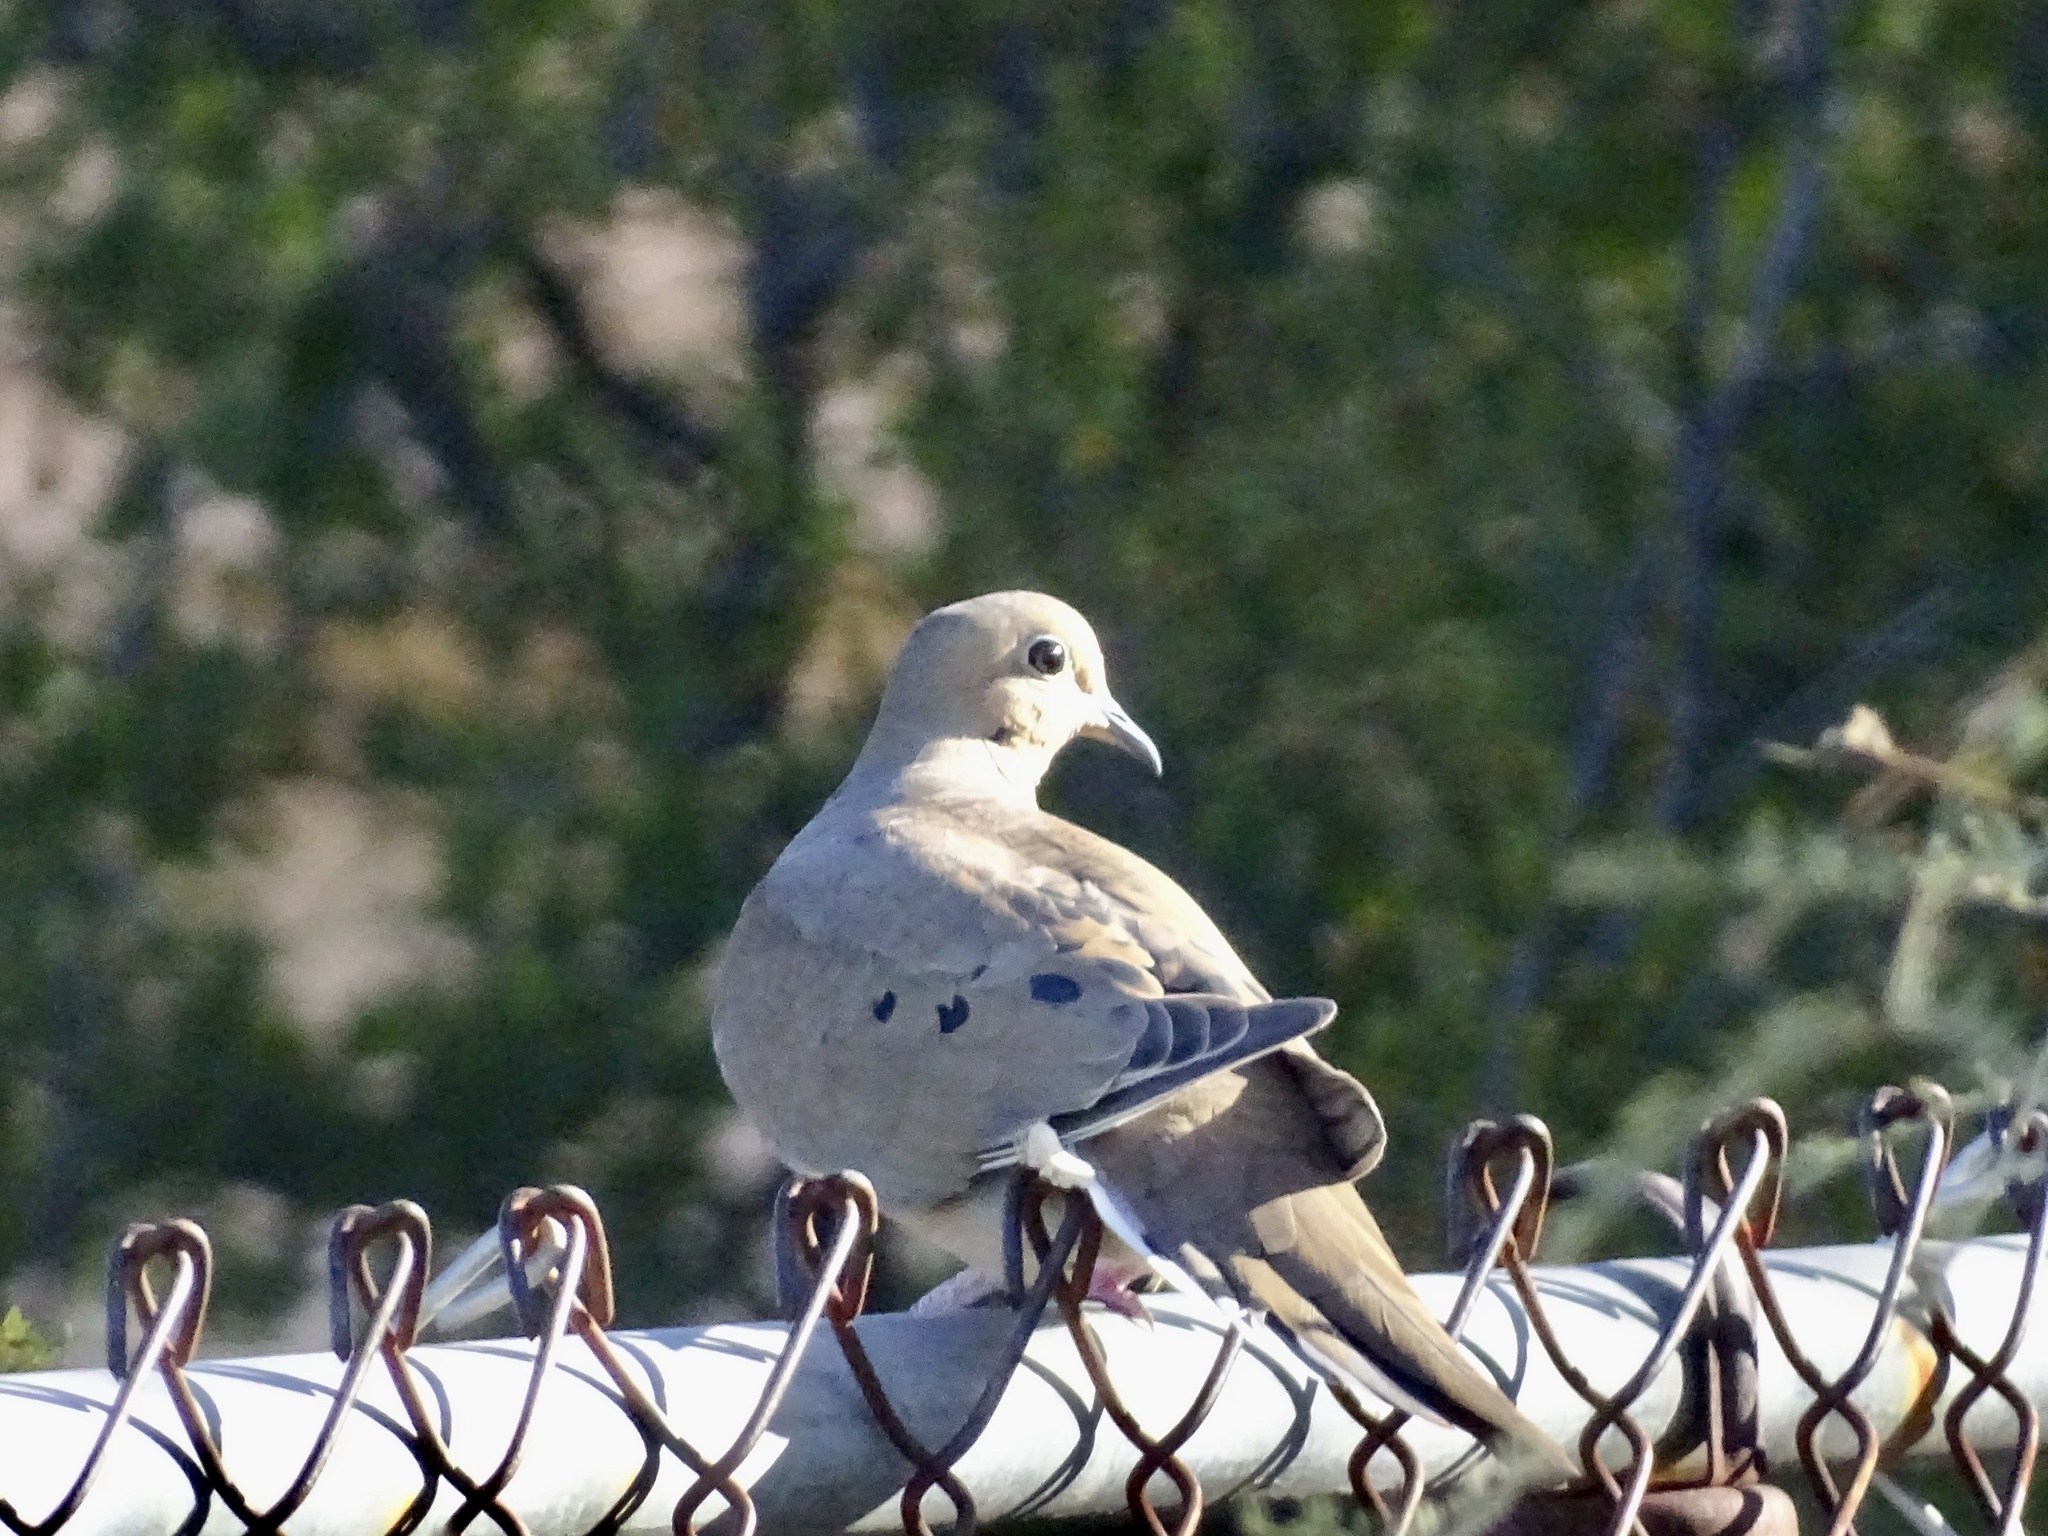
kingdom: Animalia
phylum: Chordata
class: Aves
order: Columbiformes
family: Columbidae
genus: Zenaida
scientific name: Zenaida macroura
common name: Mourning dove
